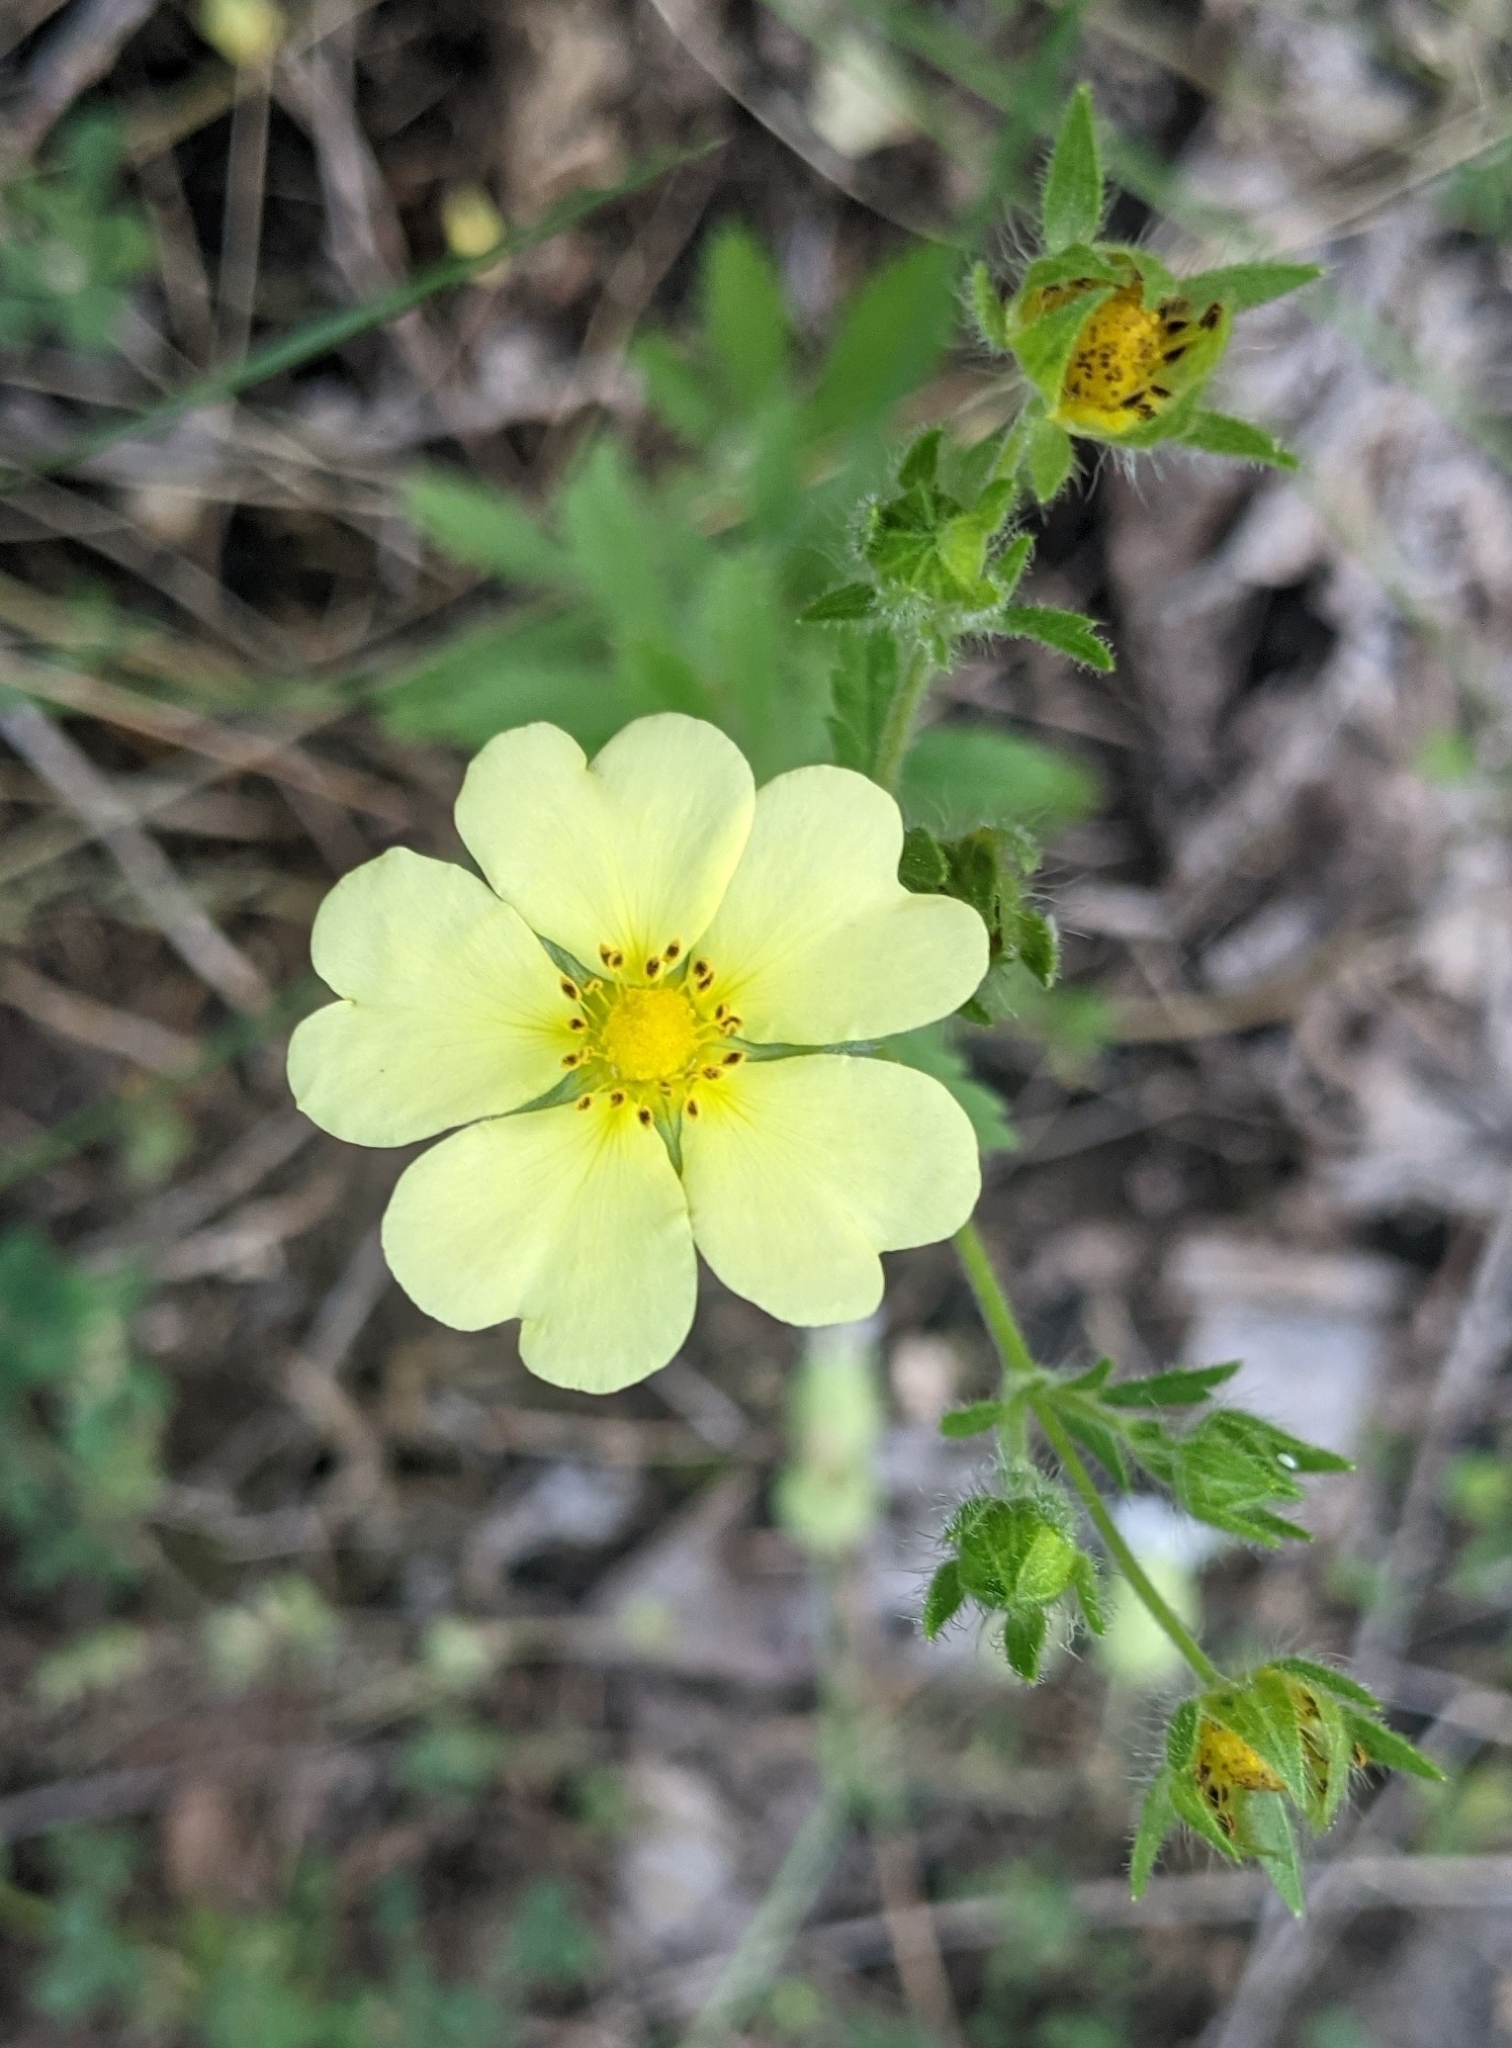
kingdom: Plantae
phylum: Tracheophyta
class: Magnoliopsida
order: Rosales
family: Rosaceae
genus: Potentilla
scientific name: Potentilla recta
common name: Sulphur cinquefoil
